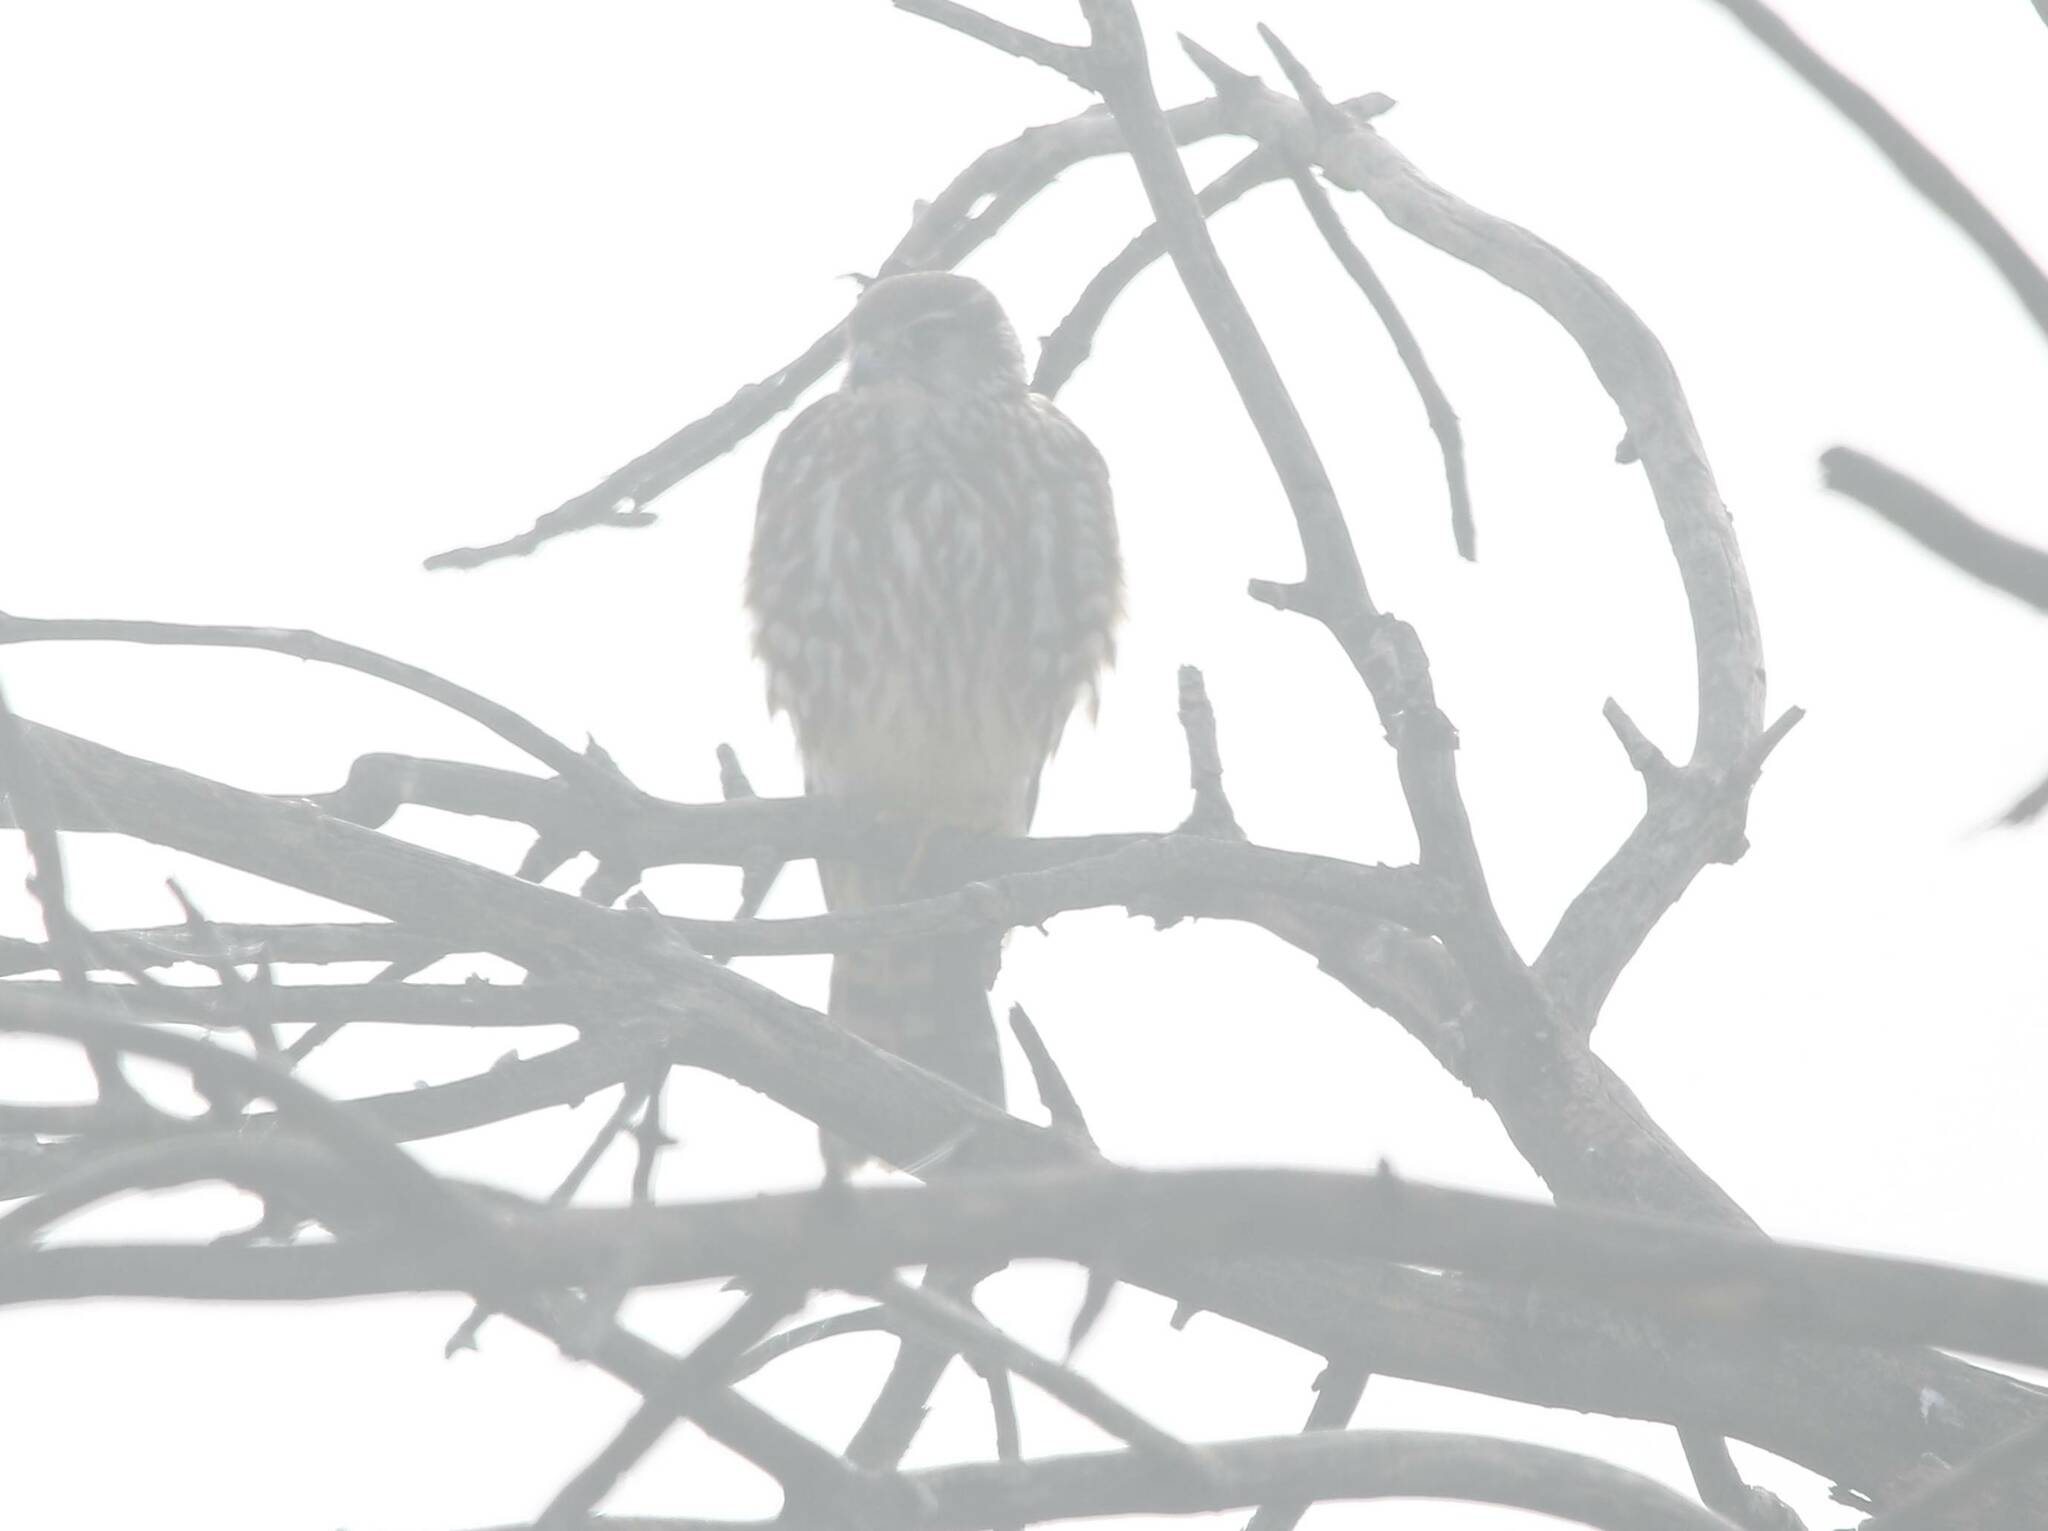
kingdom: Animalia
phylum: Chordata
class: Aves
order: Falconiformes
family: Falconidae
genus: Falco
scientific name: Falco columbarius
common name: Merlin
